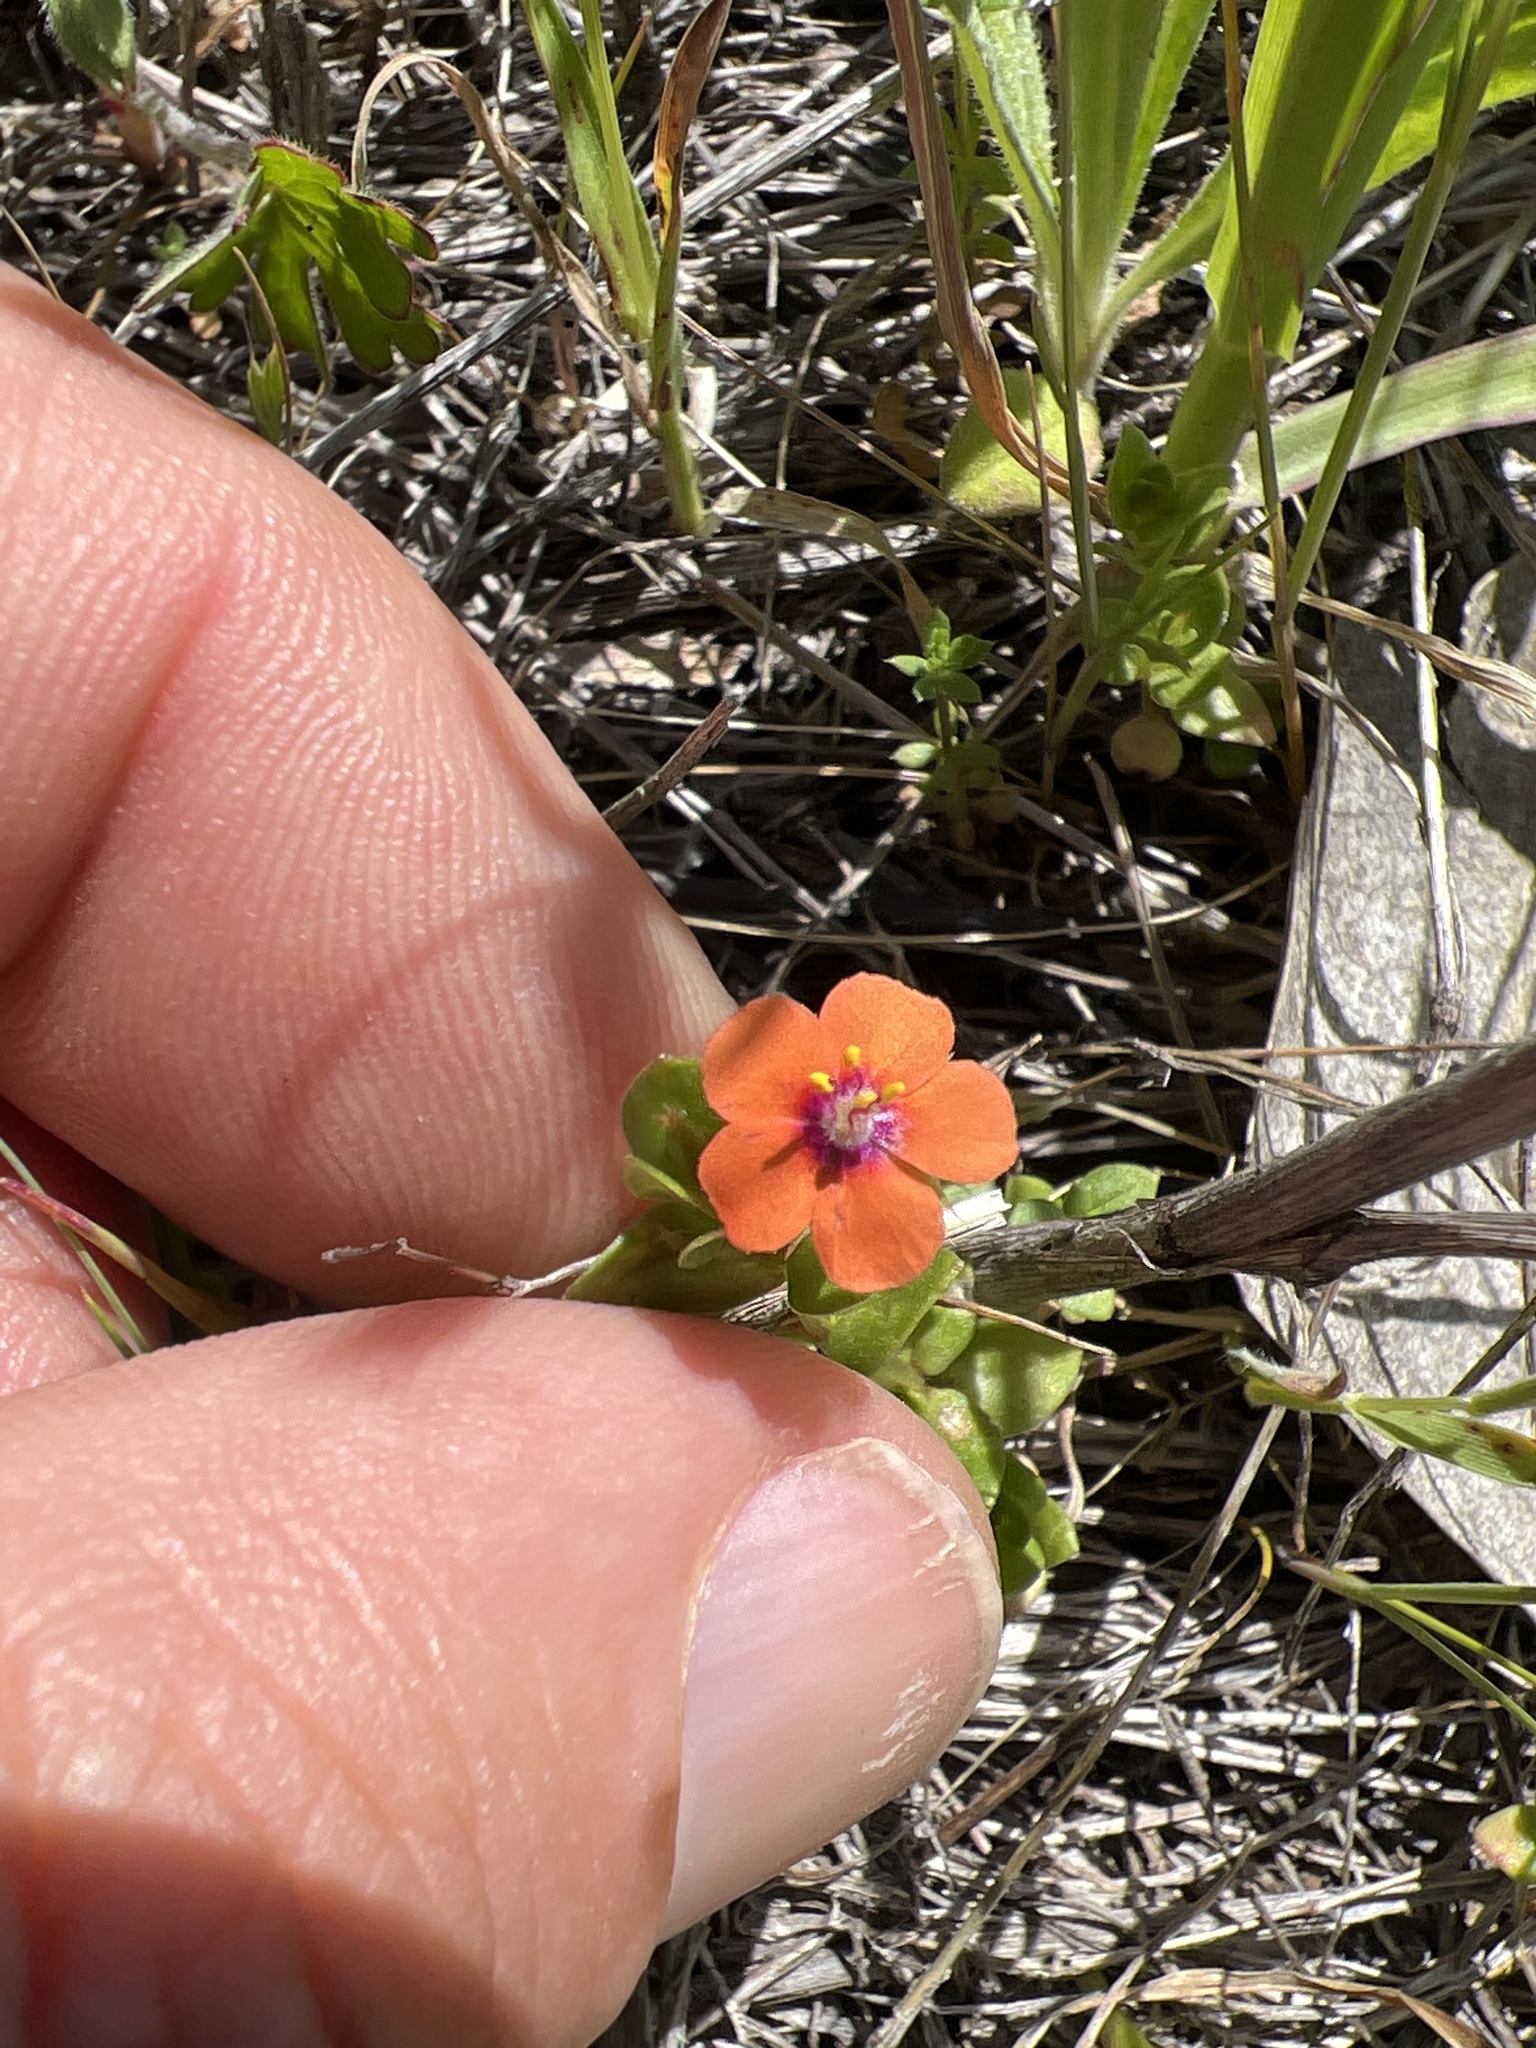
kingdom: Plantae
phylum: Tracheophyta
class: Magnoliopsida
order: Ericales
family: Primulaceae
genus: Lysimachia
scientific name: Lysimachia arvensis
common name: Scarlet pimpernel
